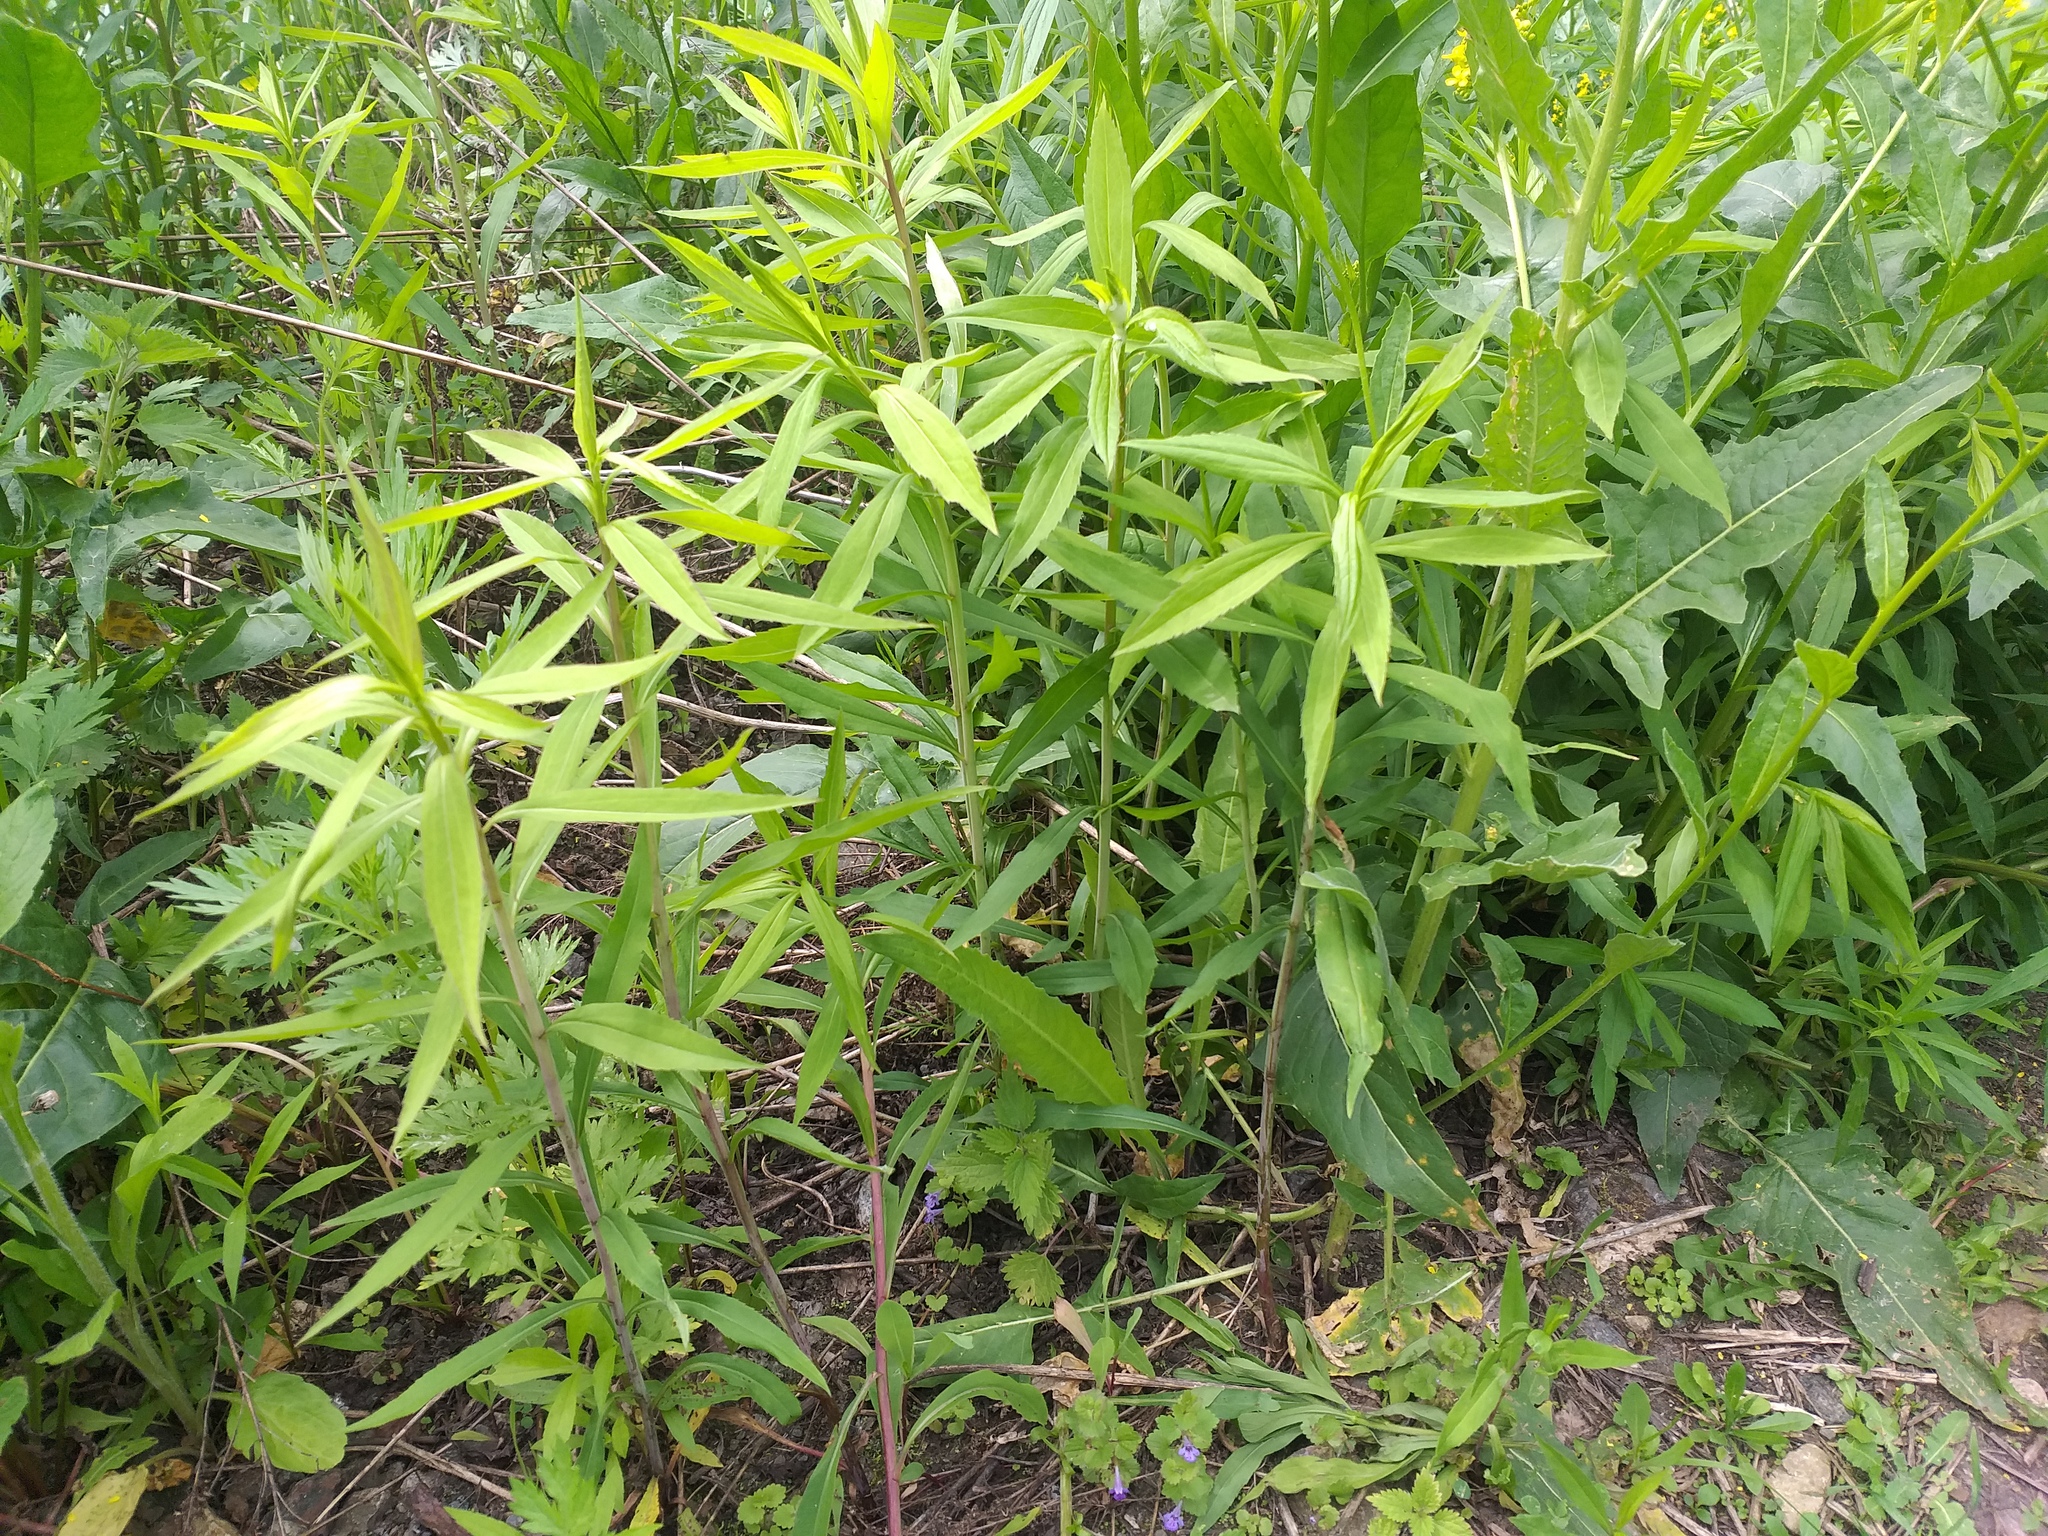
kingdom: Plantae
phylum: Tracheophyta
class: Magnoliopsida
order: Asterales
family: Asteraceae
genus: Solidago
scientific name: Solidago gigantea
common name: Giant goldenrod
